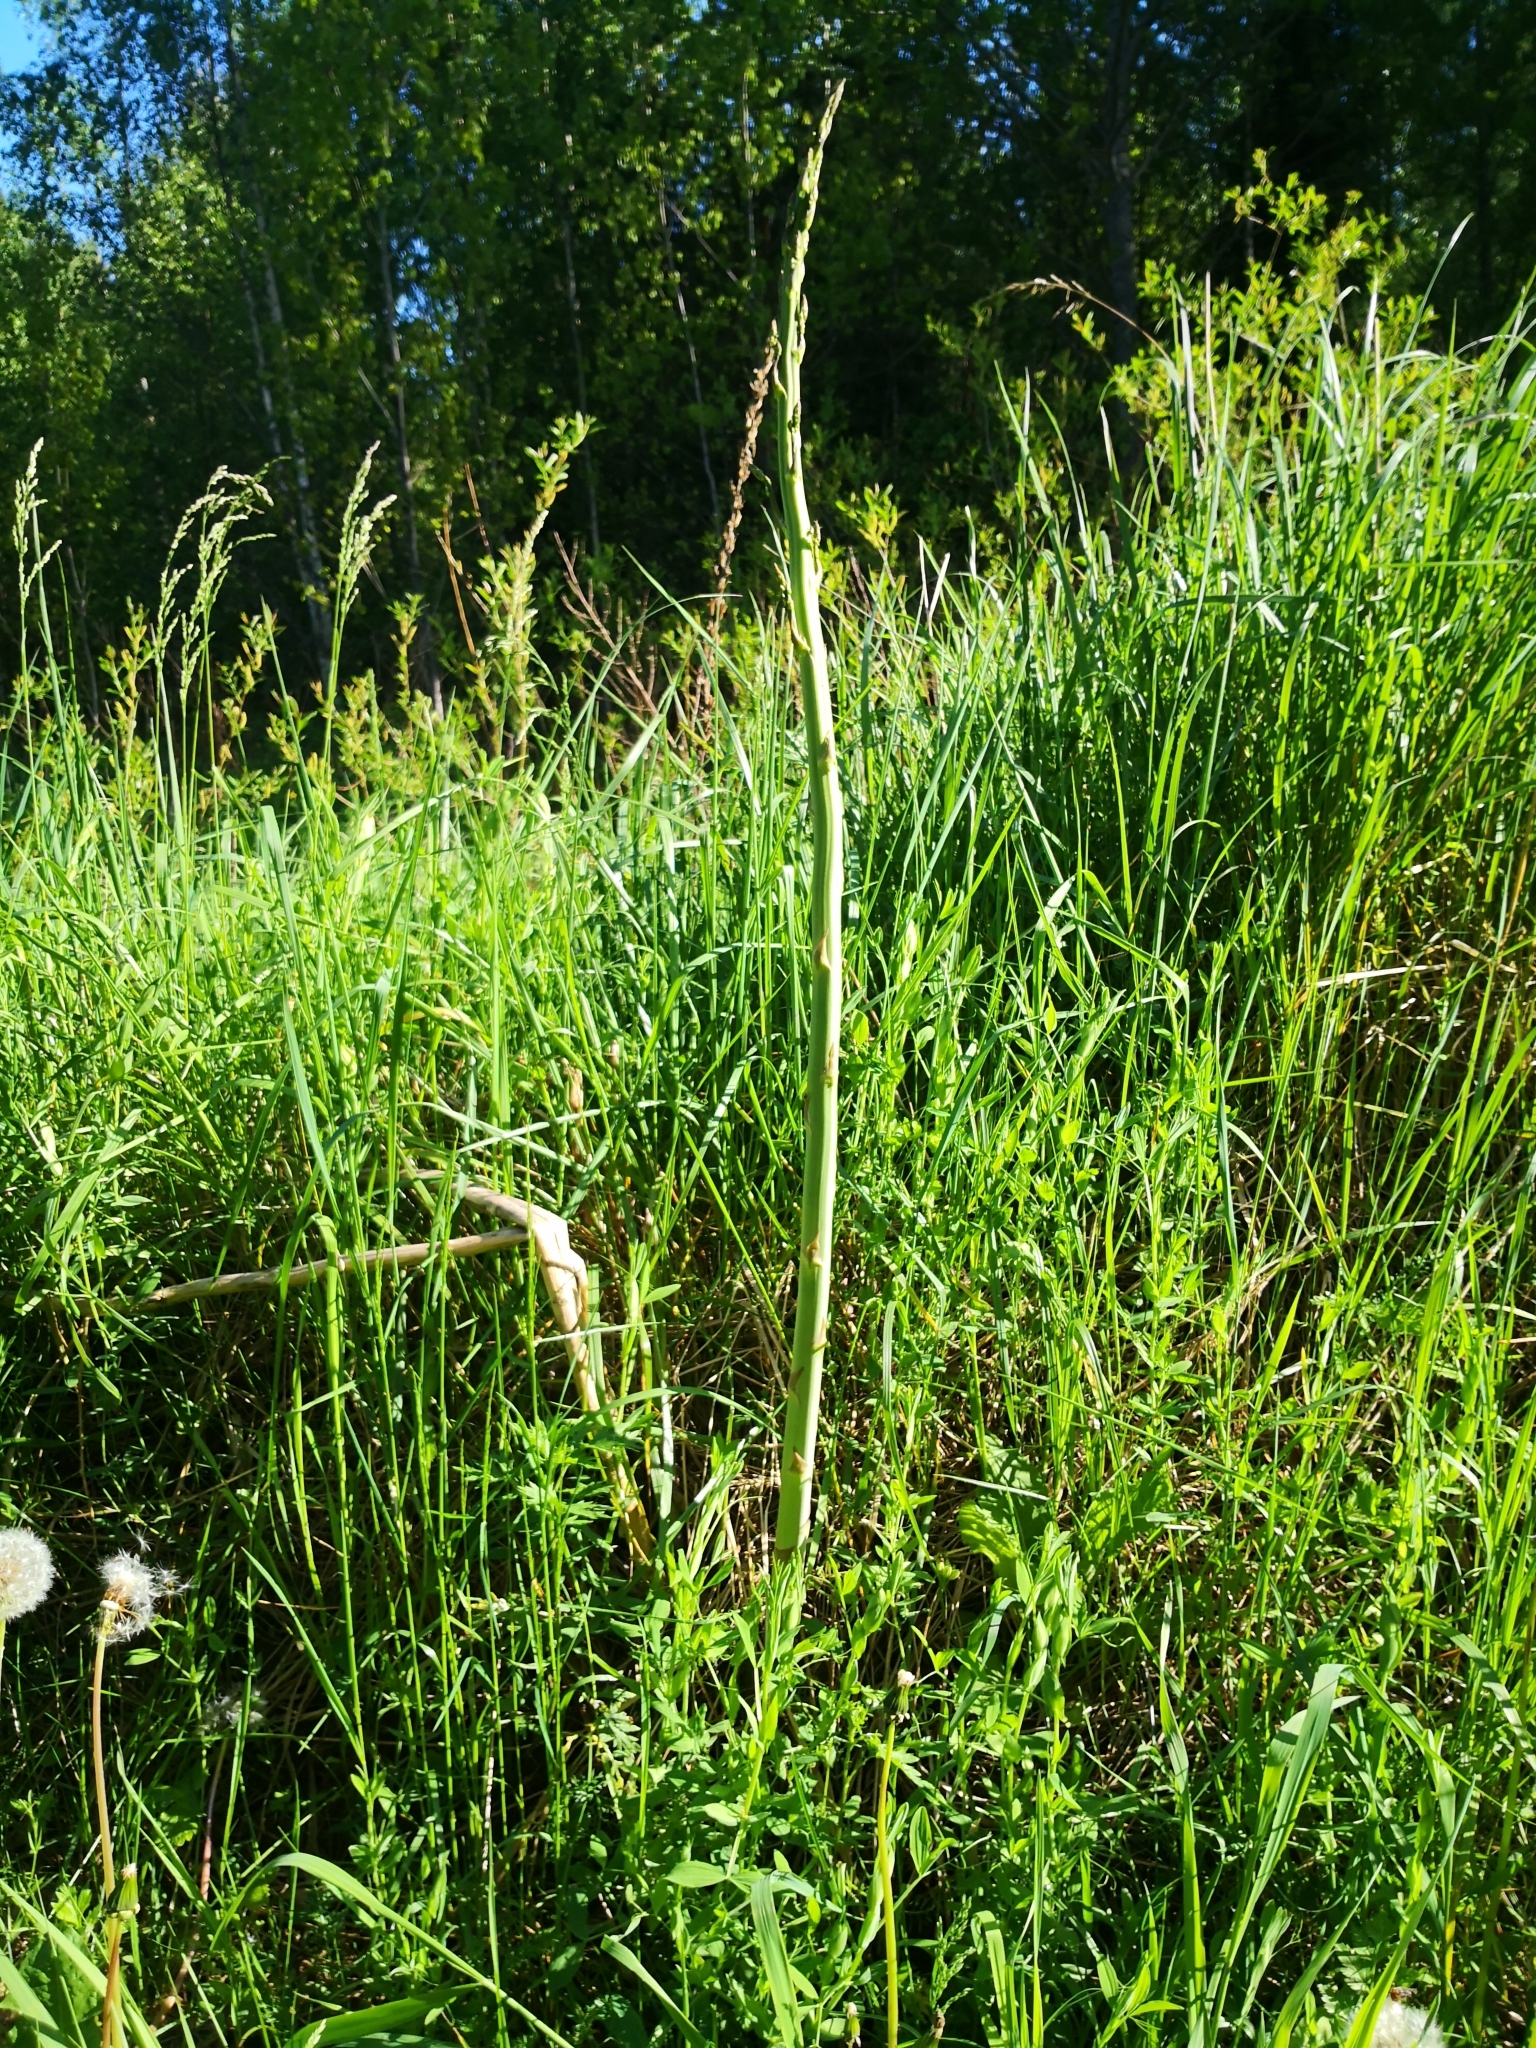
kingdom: Plantae
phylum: Tracheophyta
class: Liliopsida
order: Asparagales
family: Asparagaceae
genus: Asparagus
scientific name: Asparagus officinalis
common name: Garden asparagus
